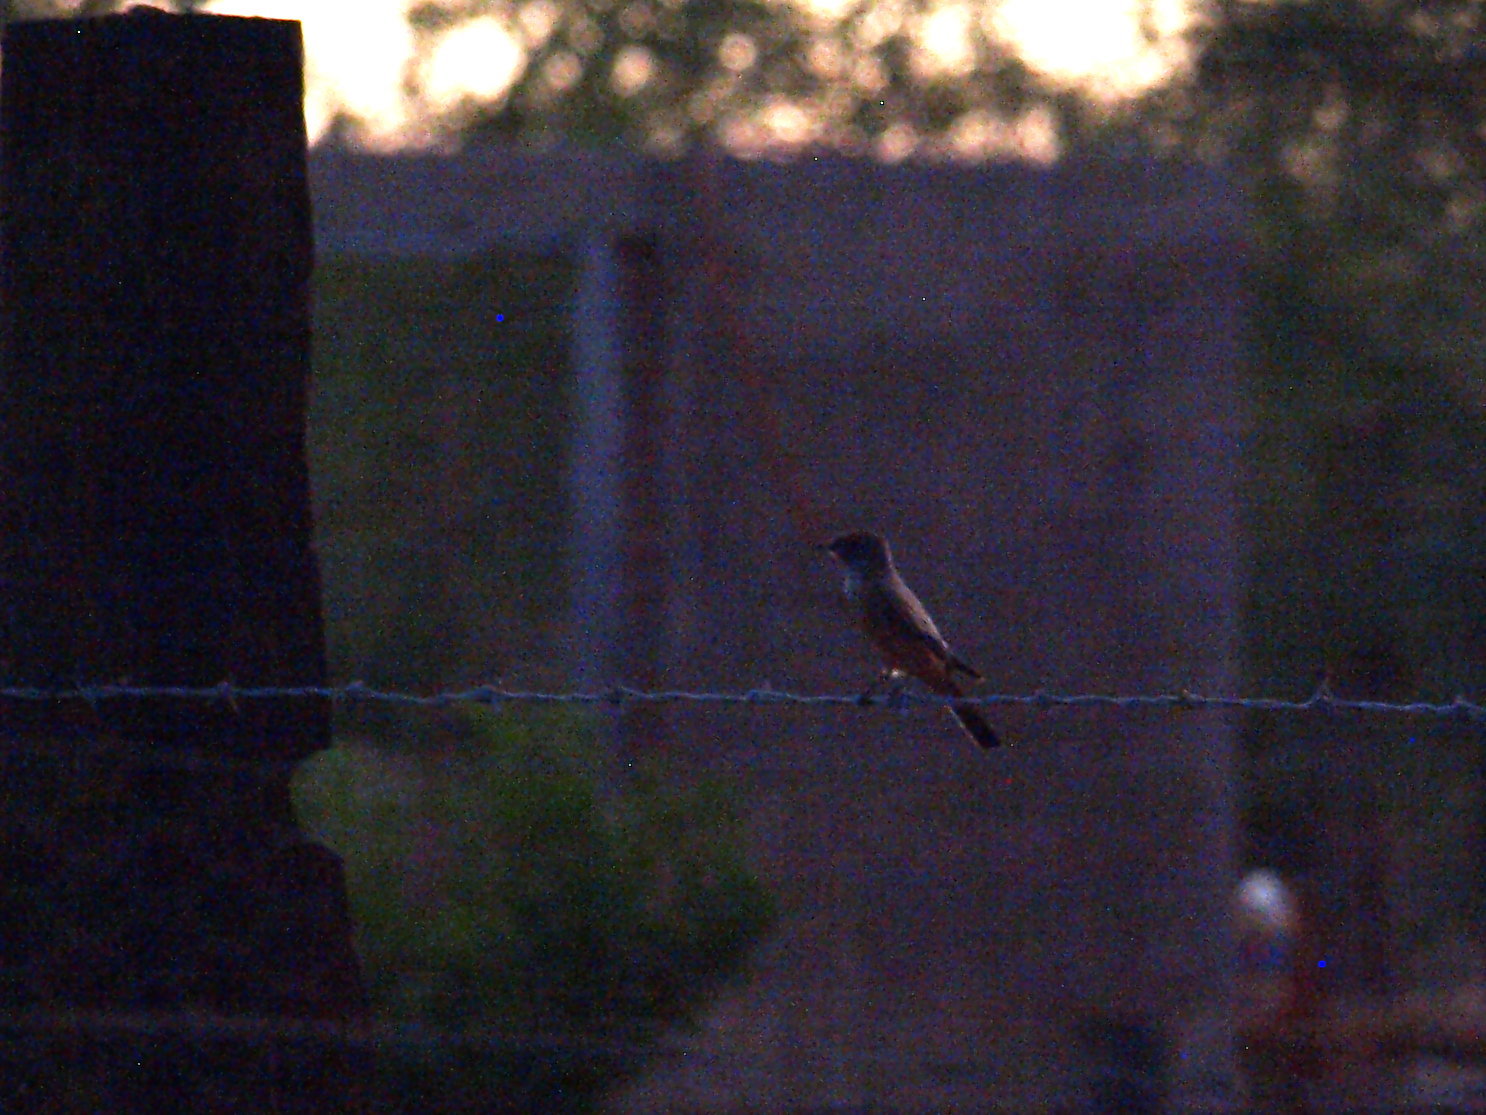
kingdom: Animalia
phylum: Chordata
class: Aves
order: Passeriformes
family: Tyrannidae
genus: Sayornis
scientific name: Sayornis saya
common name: Say's phoebe
